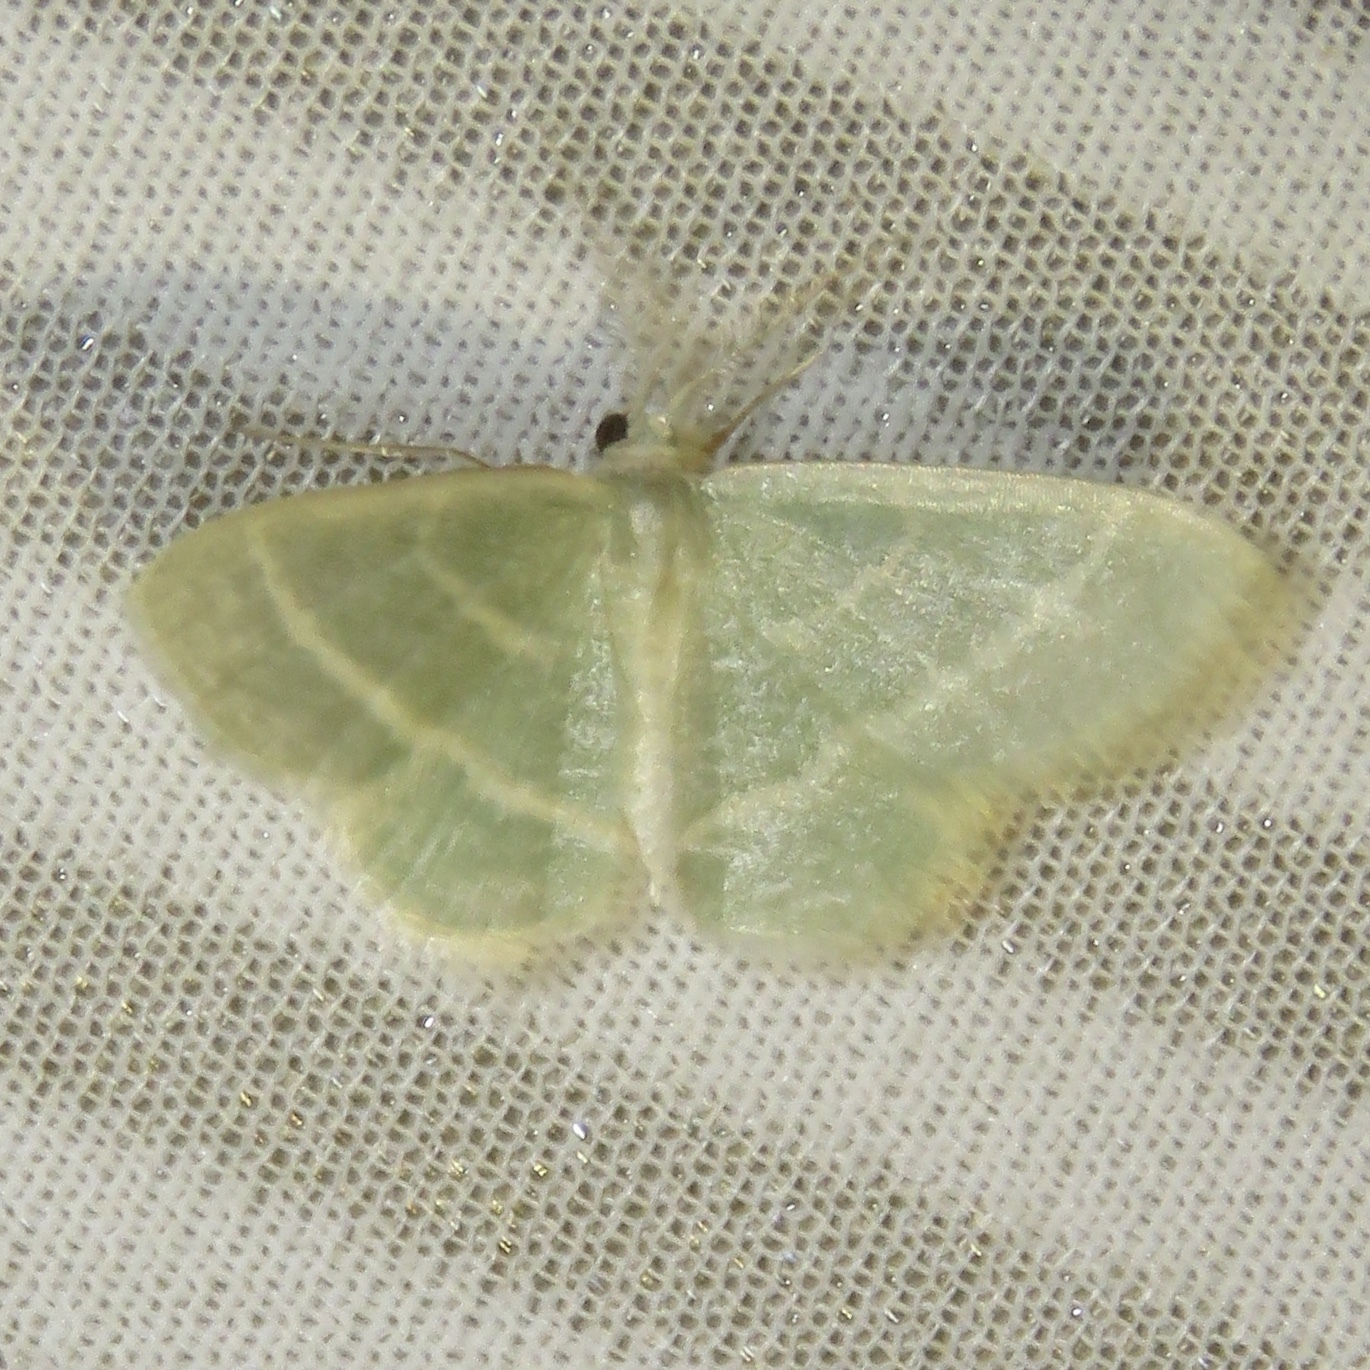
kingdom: Animalia
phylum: Arthropoda
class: Insecta
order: Lepidoptera
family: Geometridae
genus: Chlorochlamys
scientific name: Chlorochlamys chloroleucaria
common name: Blackberry looper
